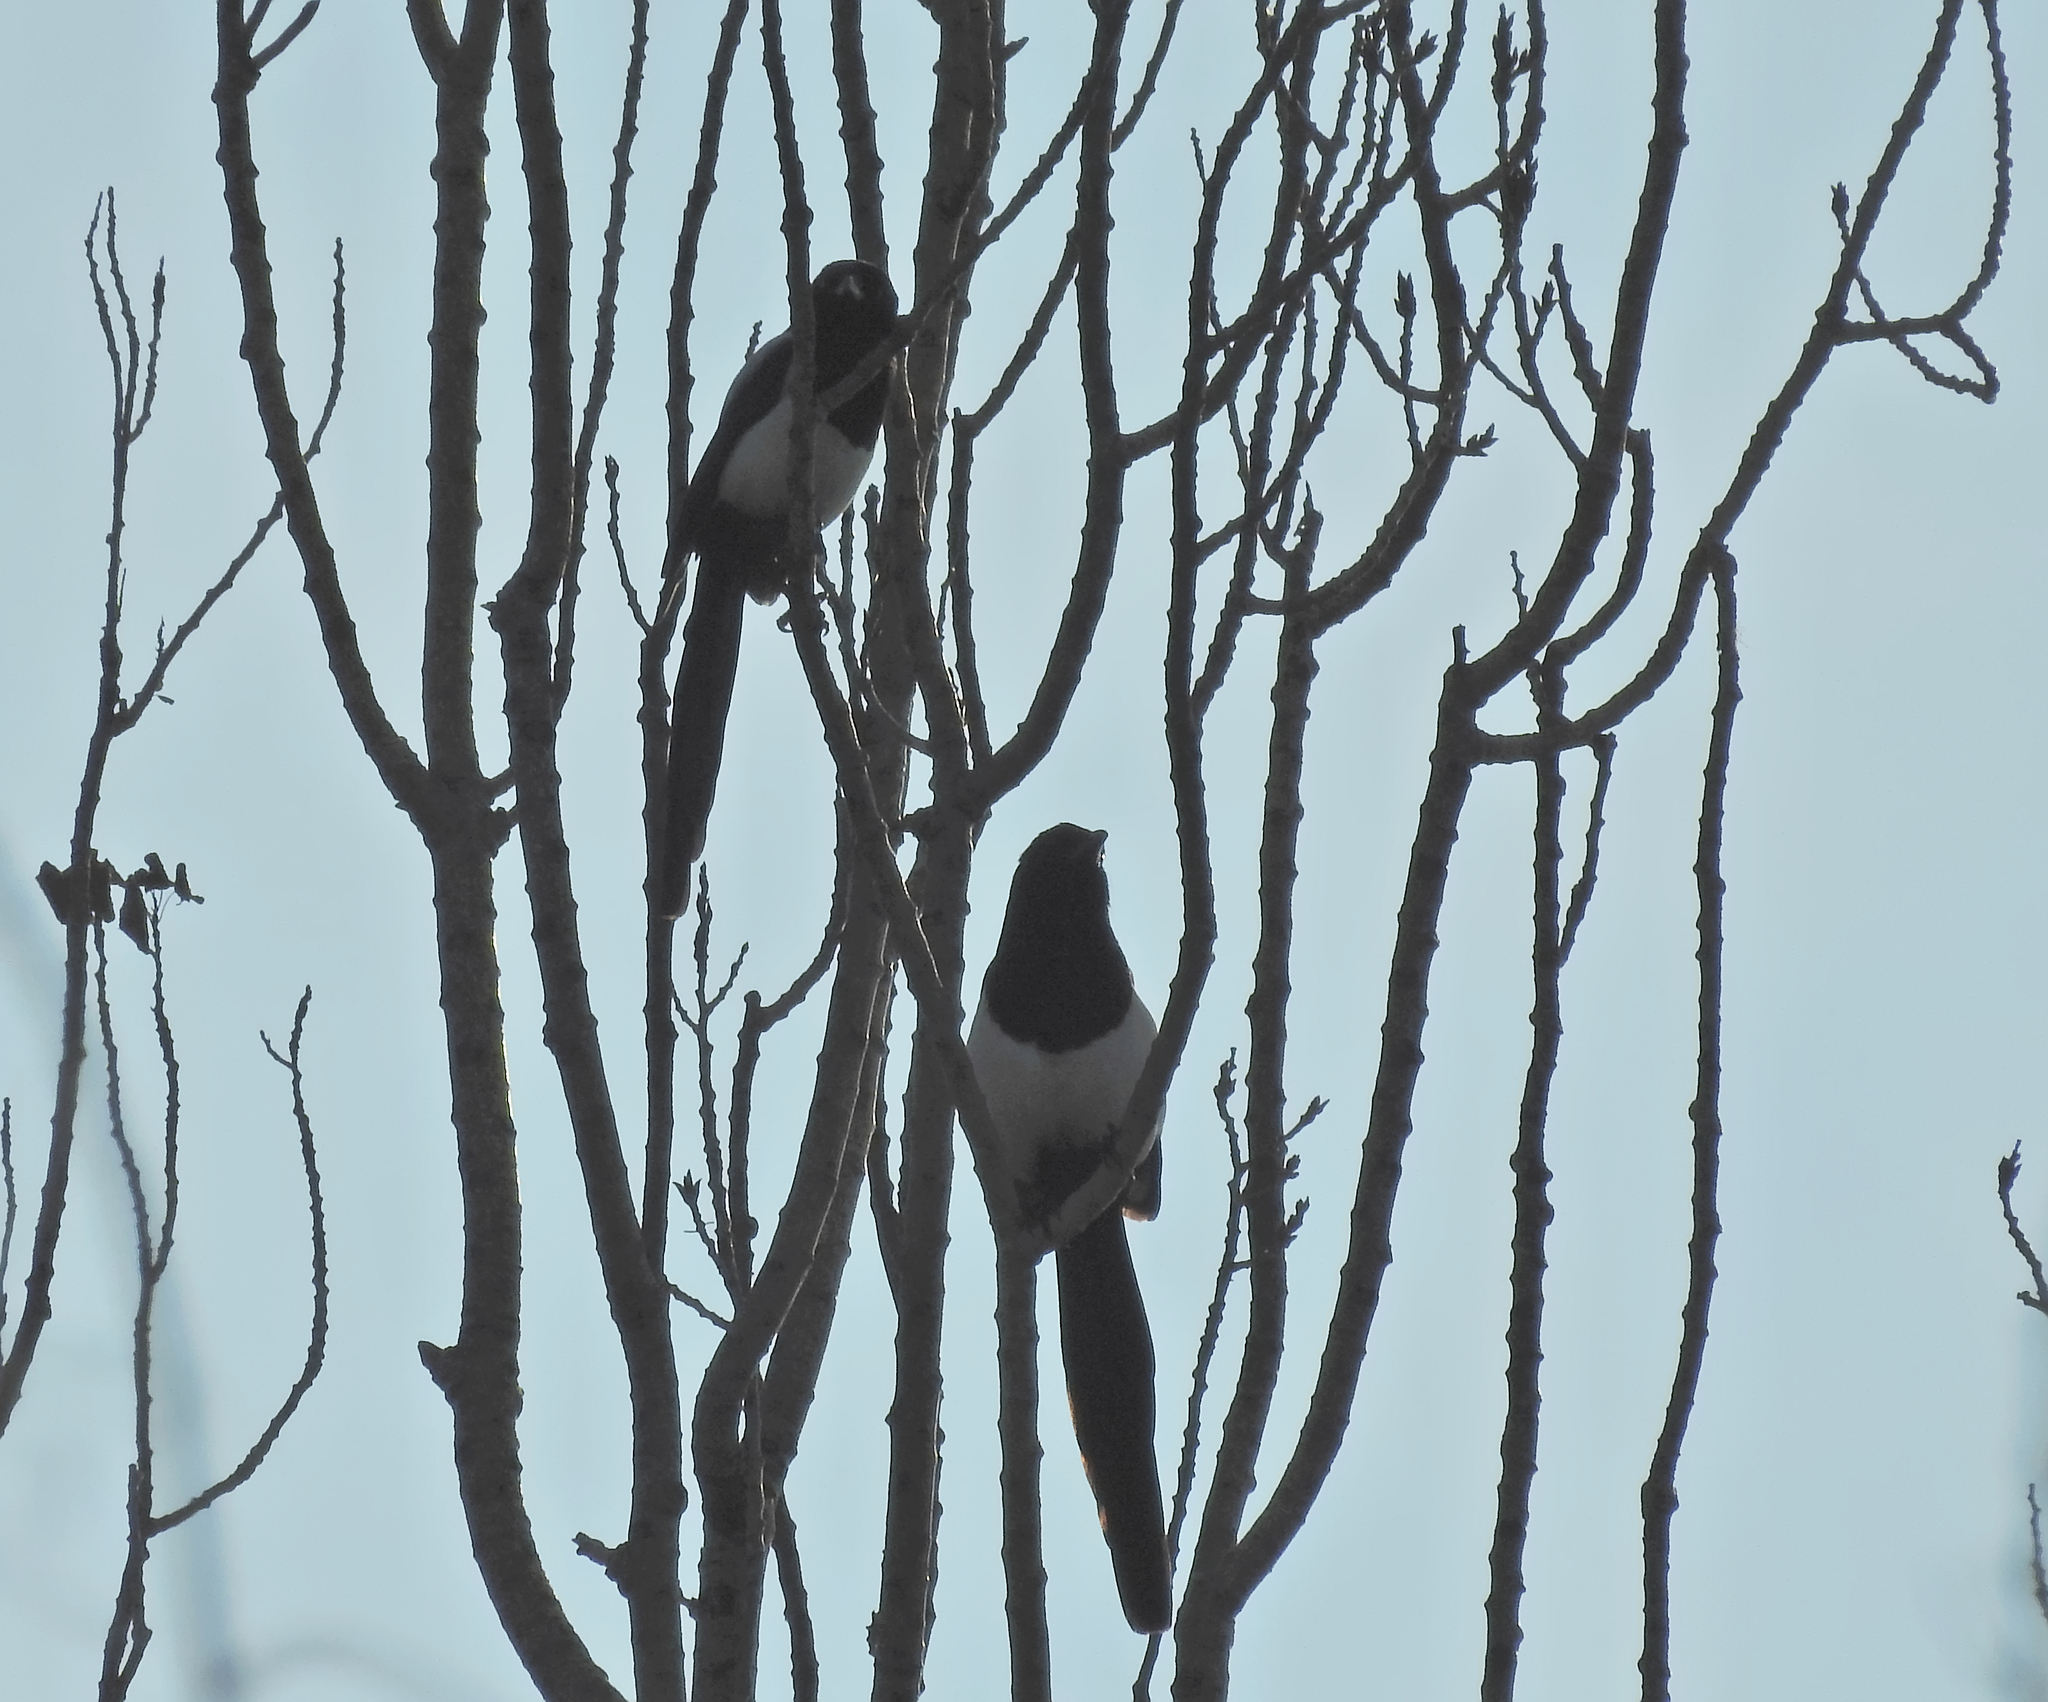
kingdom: Animalia
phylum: Chordata
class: Aves
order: Passeriformes
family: Corvidae
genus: Pica
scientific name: Pica pica
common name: Eurasian magpie
